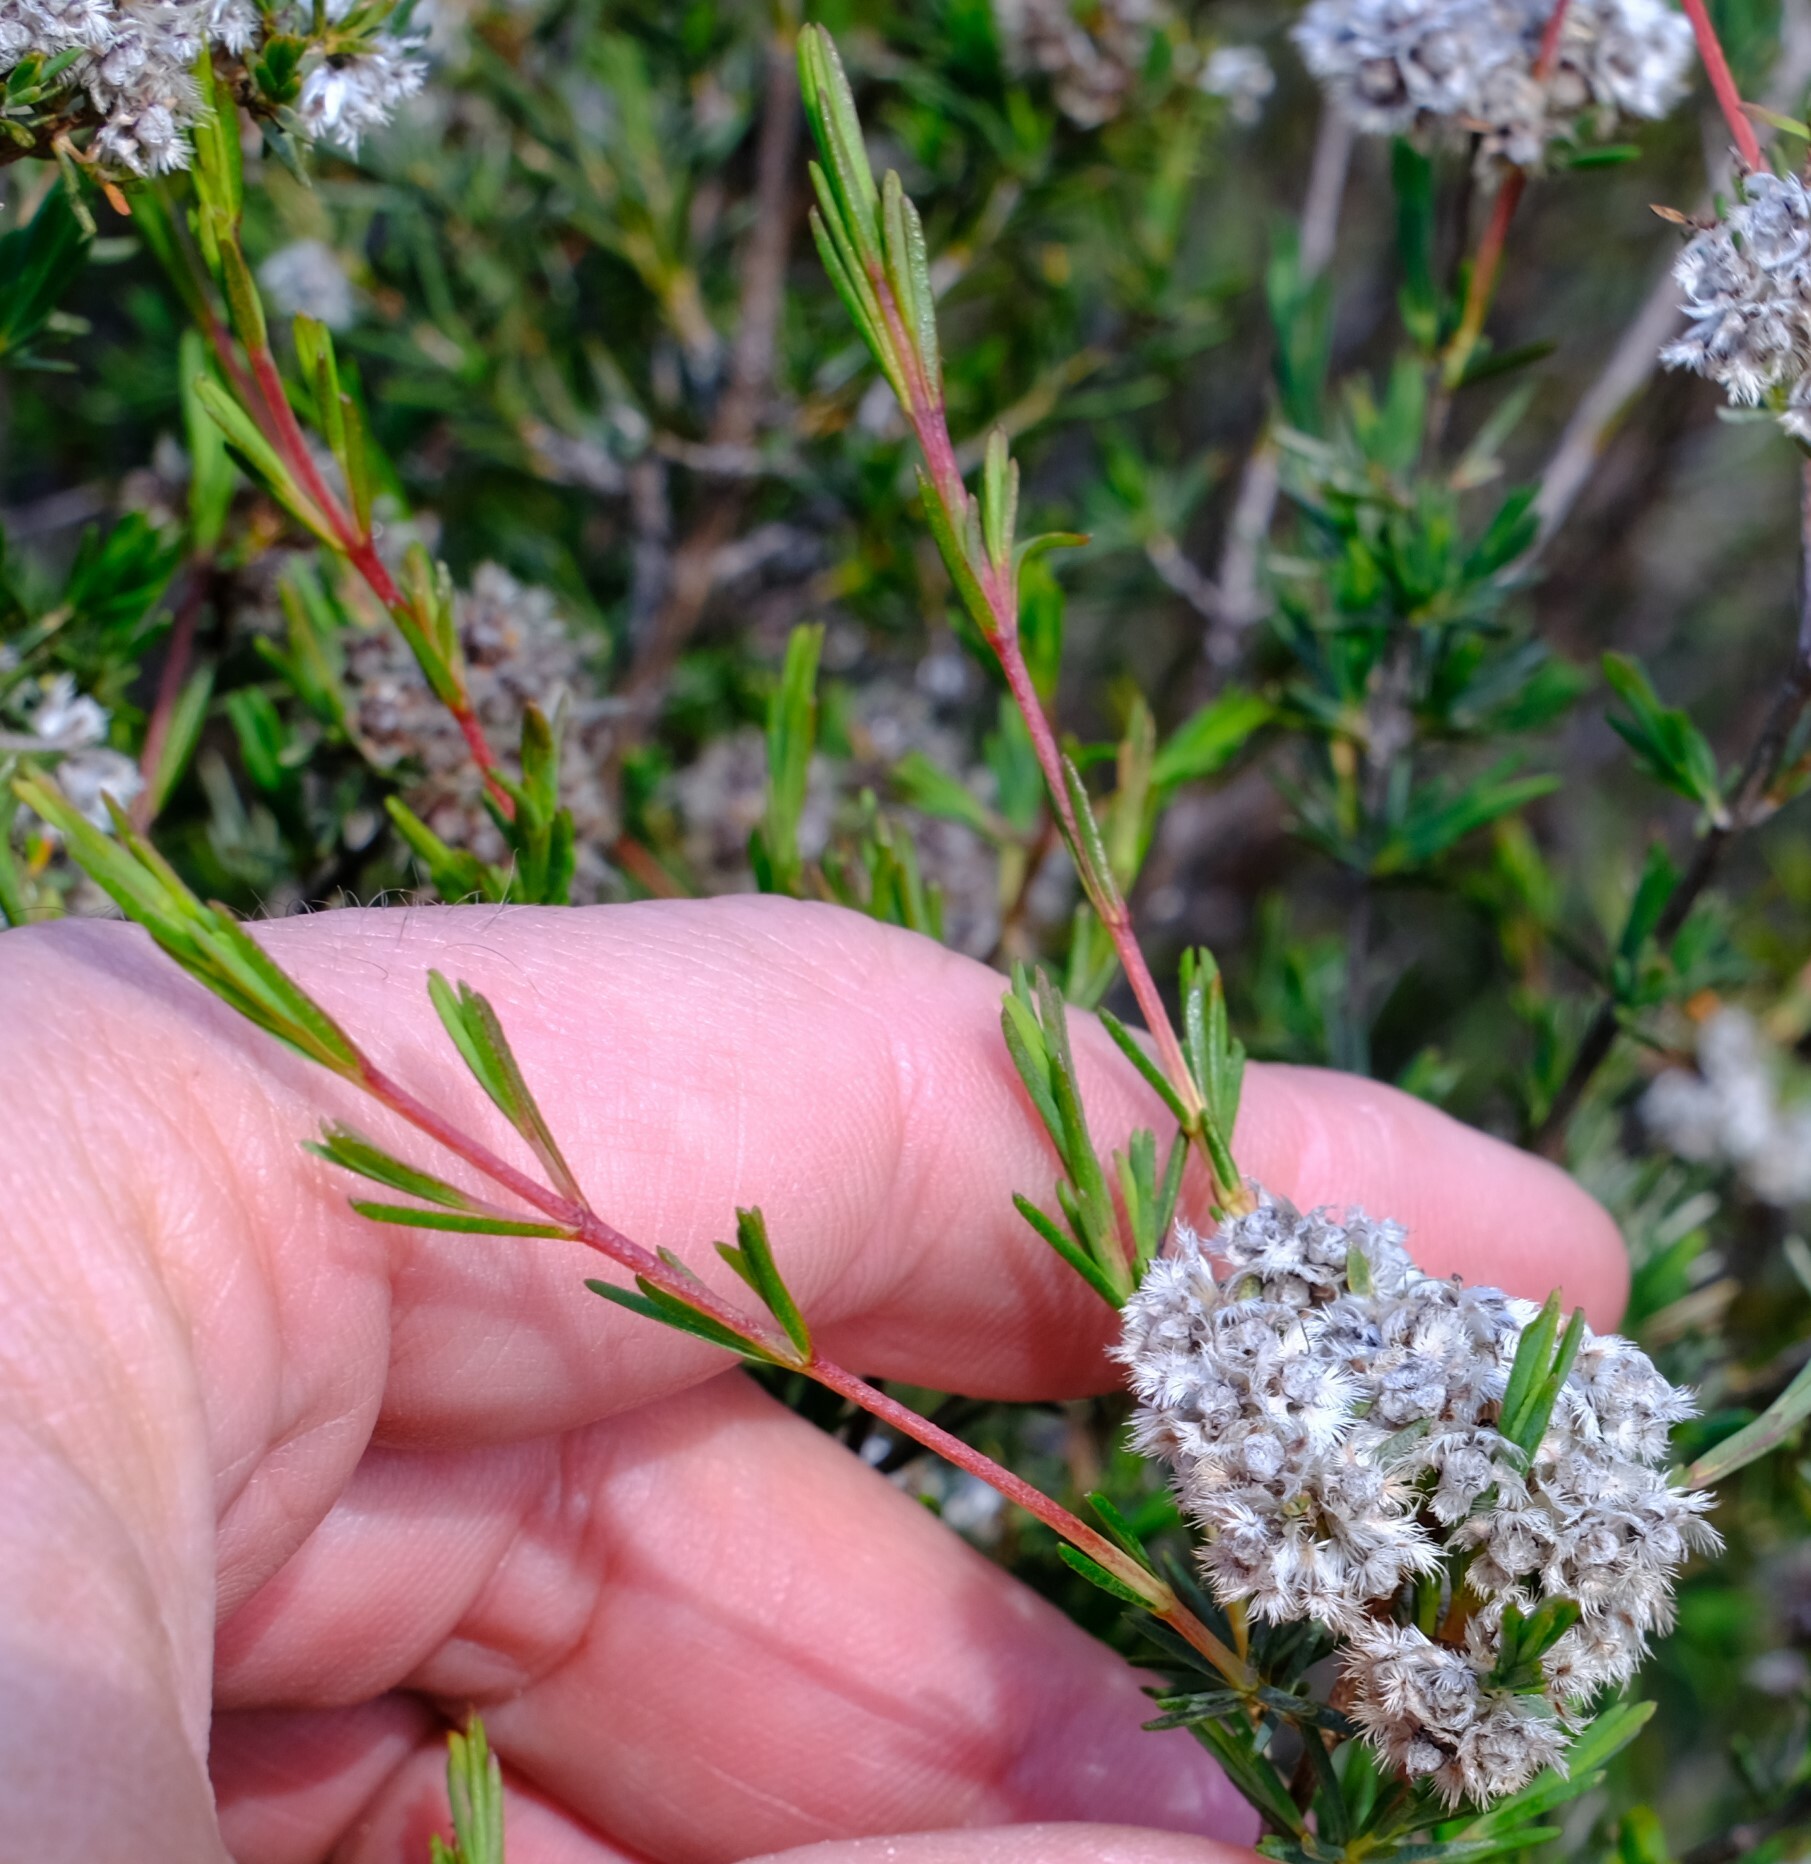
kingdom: Plantae
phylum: Tracheophyta
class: Magnoliopsida
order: Myrtales
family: Myrtaceae
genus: Verticordia
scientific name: Verticordia densiflora
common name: Compact feather-flower
